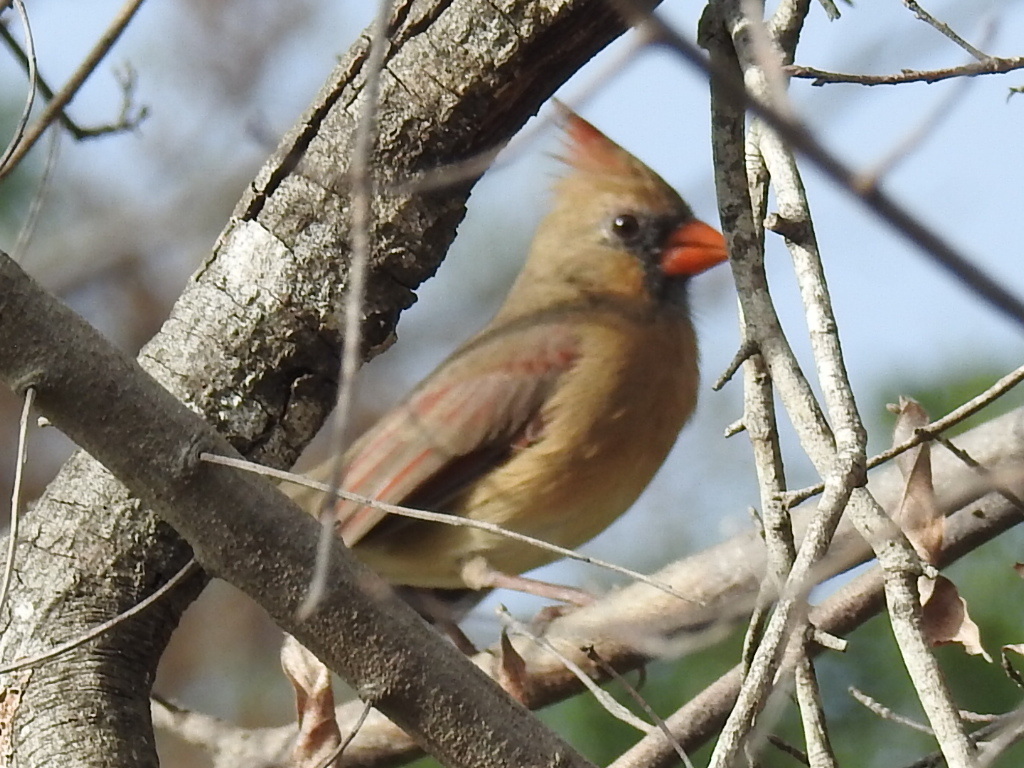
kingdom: Animalia
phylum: Chordata
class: Aves
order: Passeriformes
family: Cardinalidae
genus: Cardinalis
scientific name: Cardinalis cardinalis
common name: Northern cardinal
